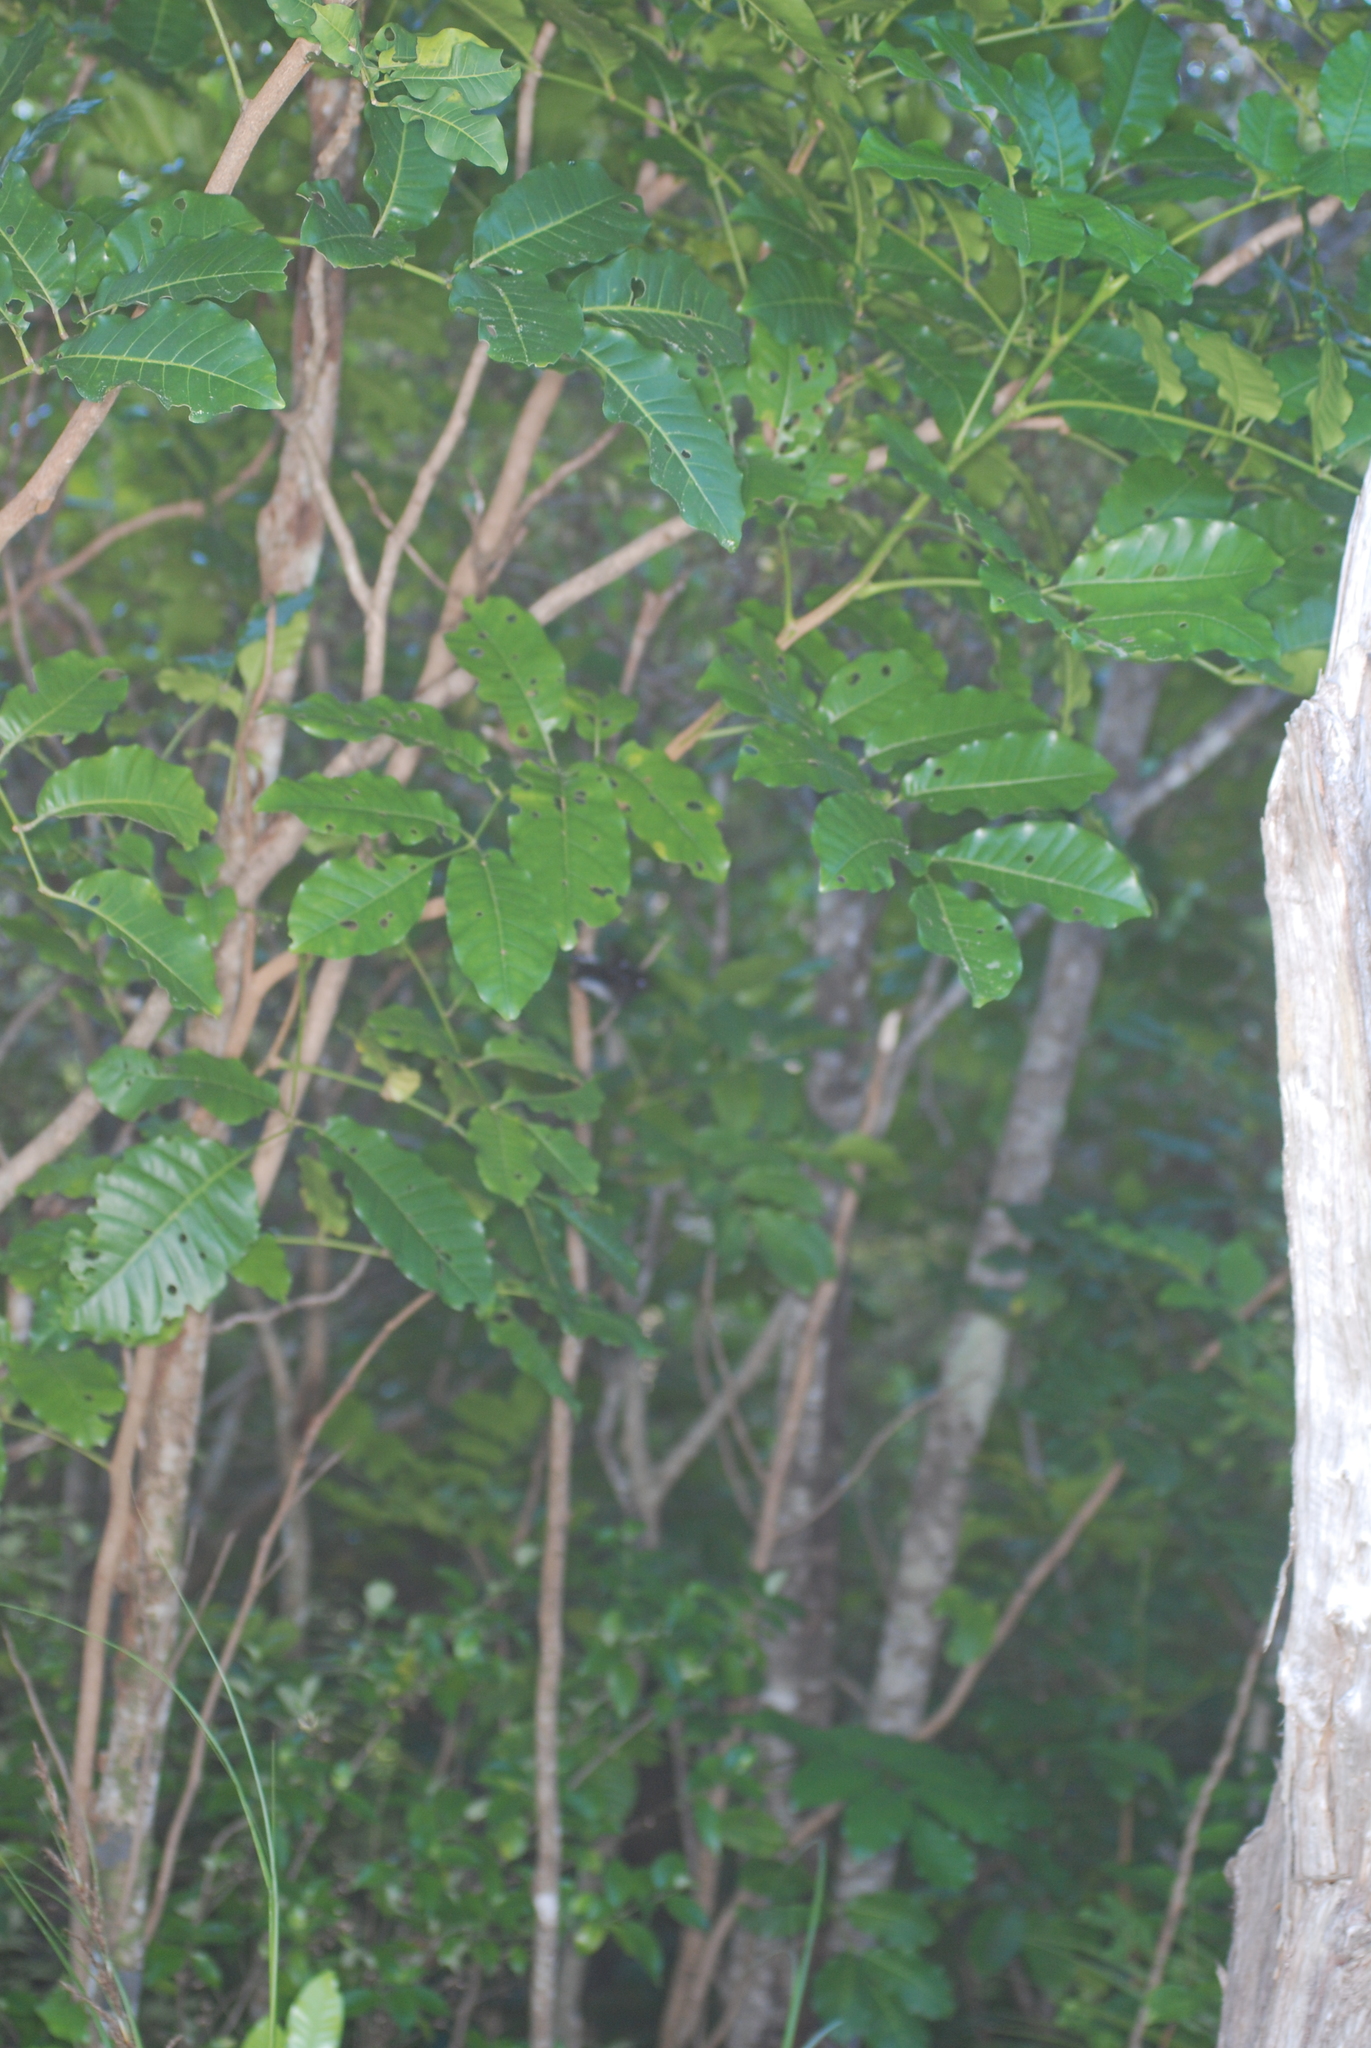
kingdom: Animalia
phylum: Chordata
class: Aves
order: Passeriformes
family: Petroicidae
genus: Petroica
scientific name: Petroica macrocephala
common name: Tomtit
